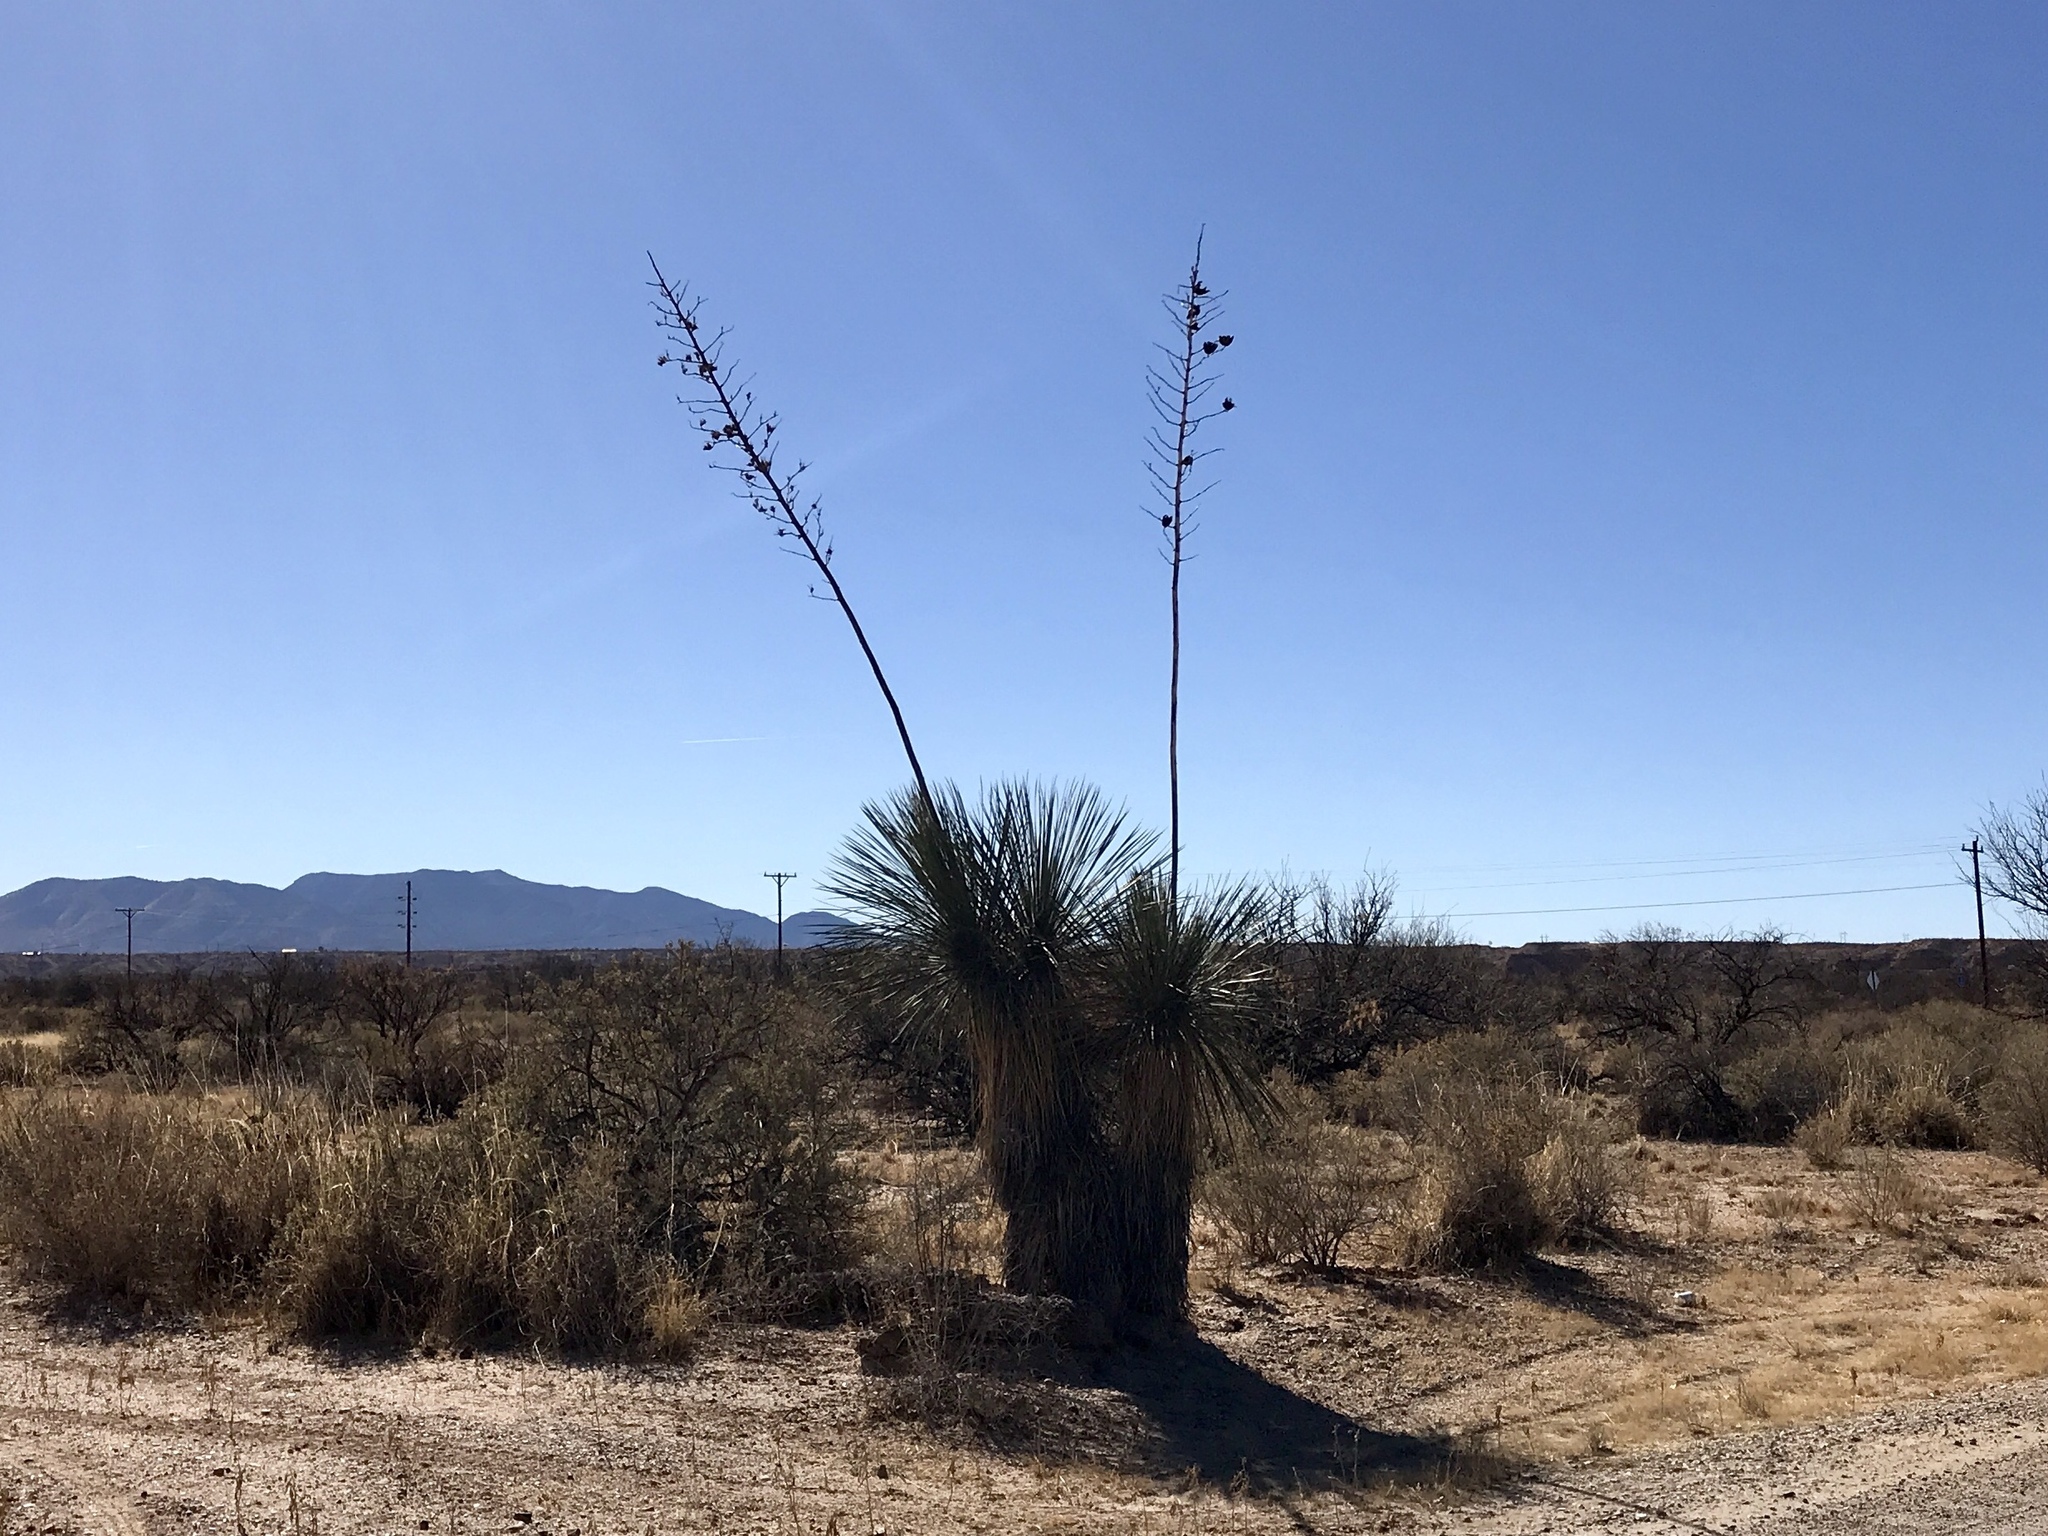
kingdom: Plantae
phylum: Tracheophyta
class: Liliopsida
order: Asparagales
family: Asparagaceae
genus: Yucca
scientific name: Yucca elata
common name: Palmella
